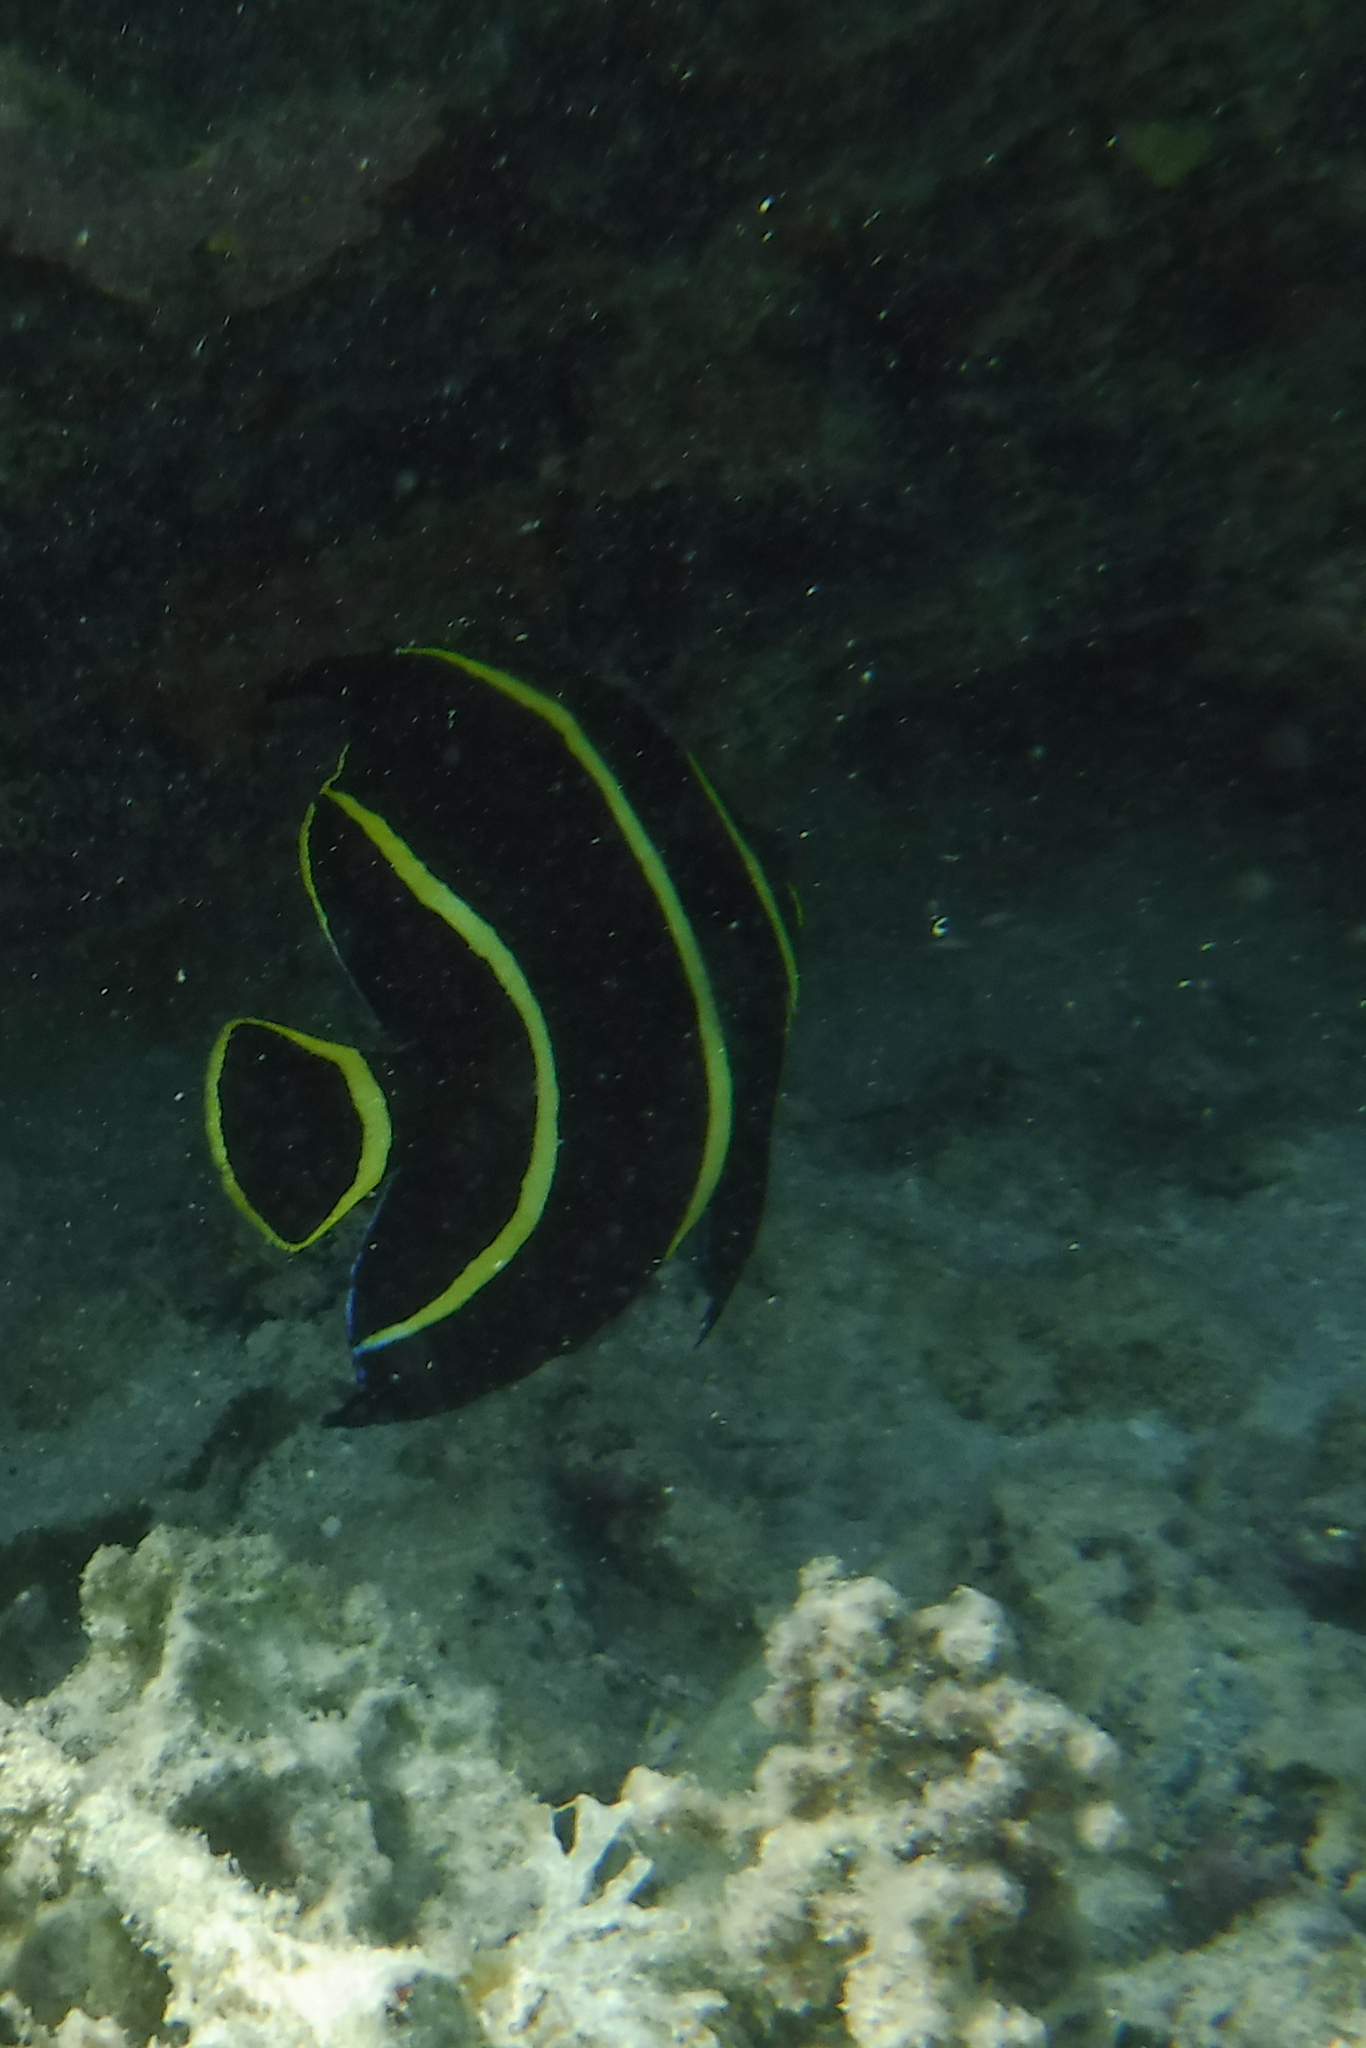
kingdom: Animalia
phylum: Chordata
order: Perciformes
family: Pomacanthidae
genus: Pomacanthus
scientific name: Pomacanthus paru
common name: French angelfish
